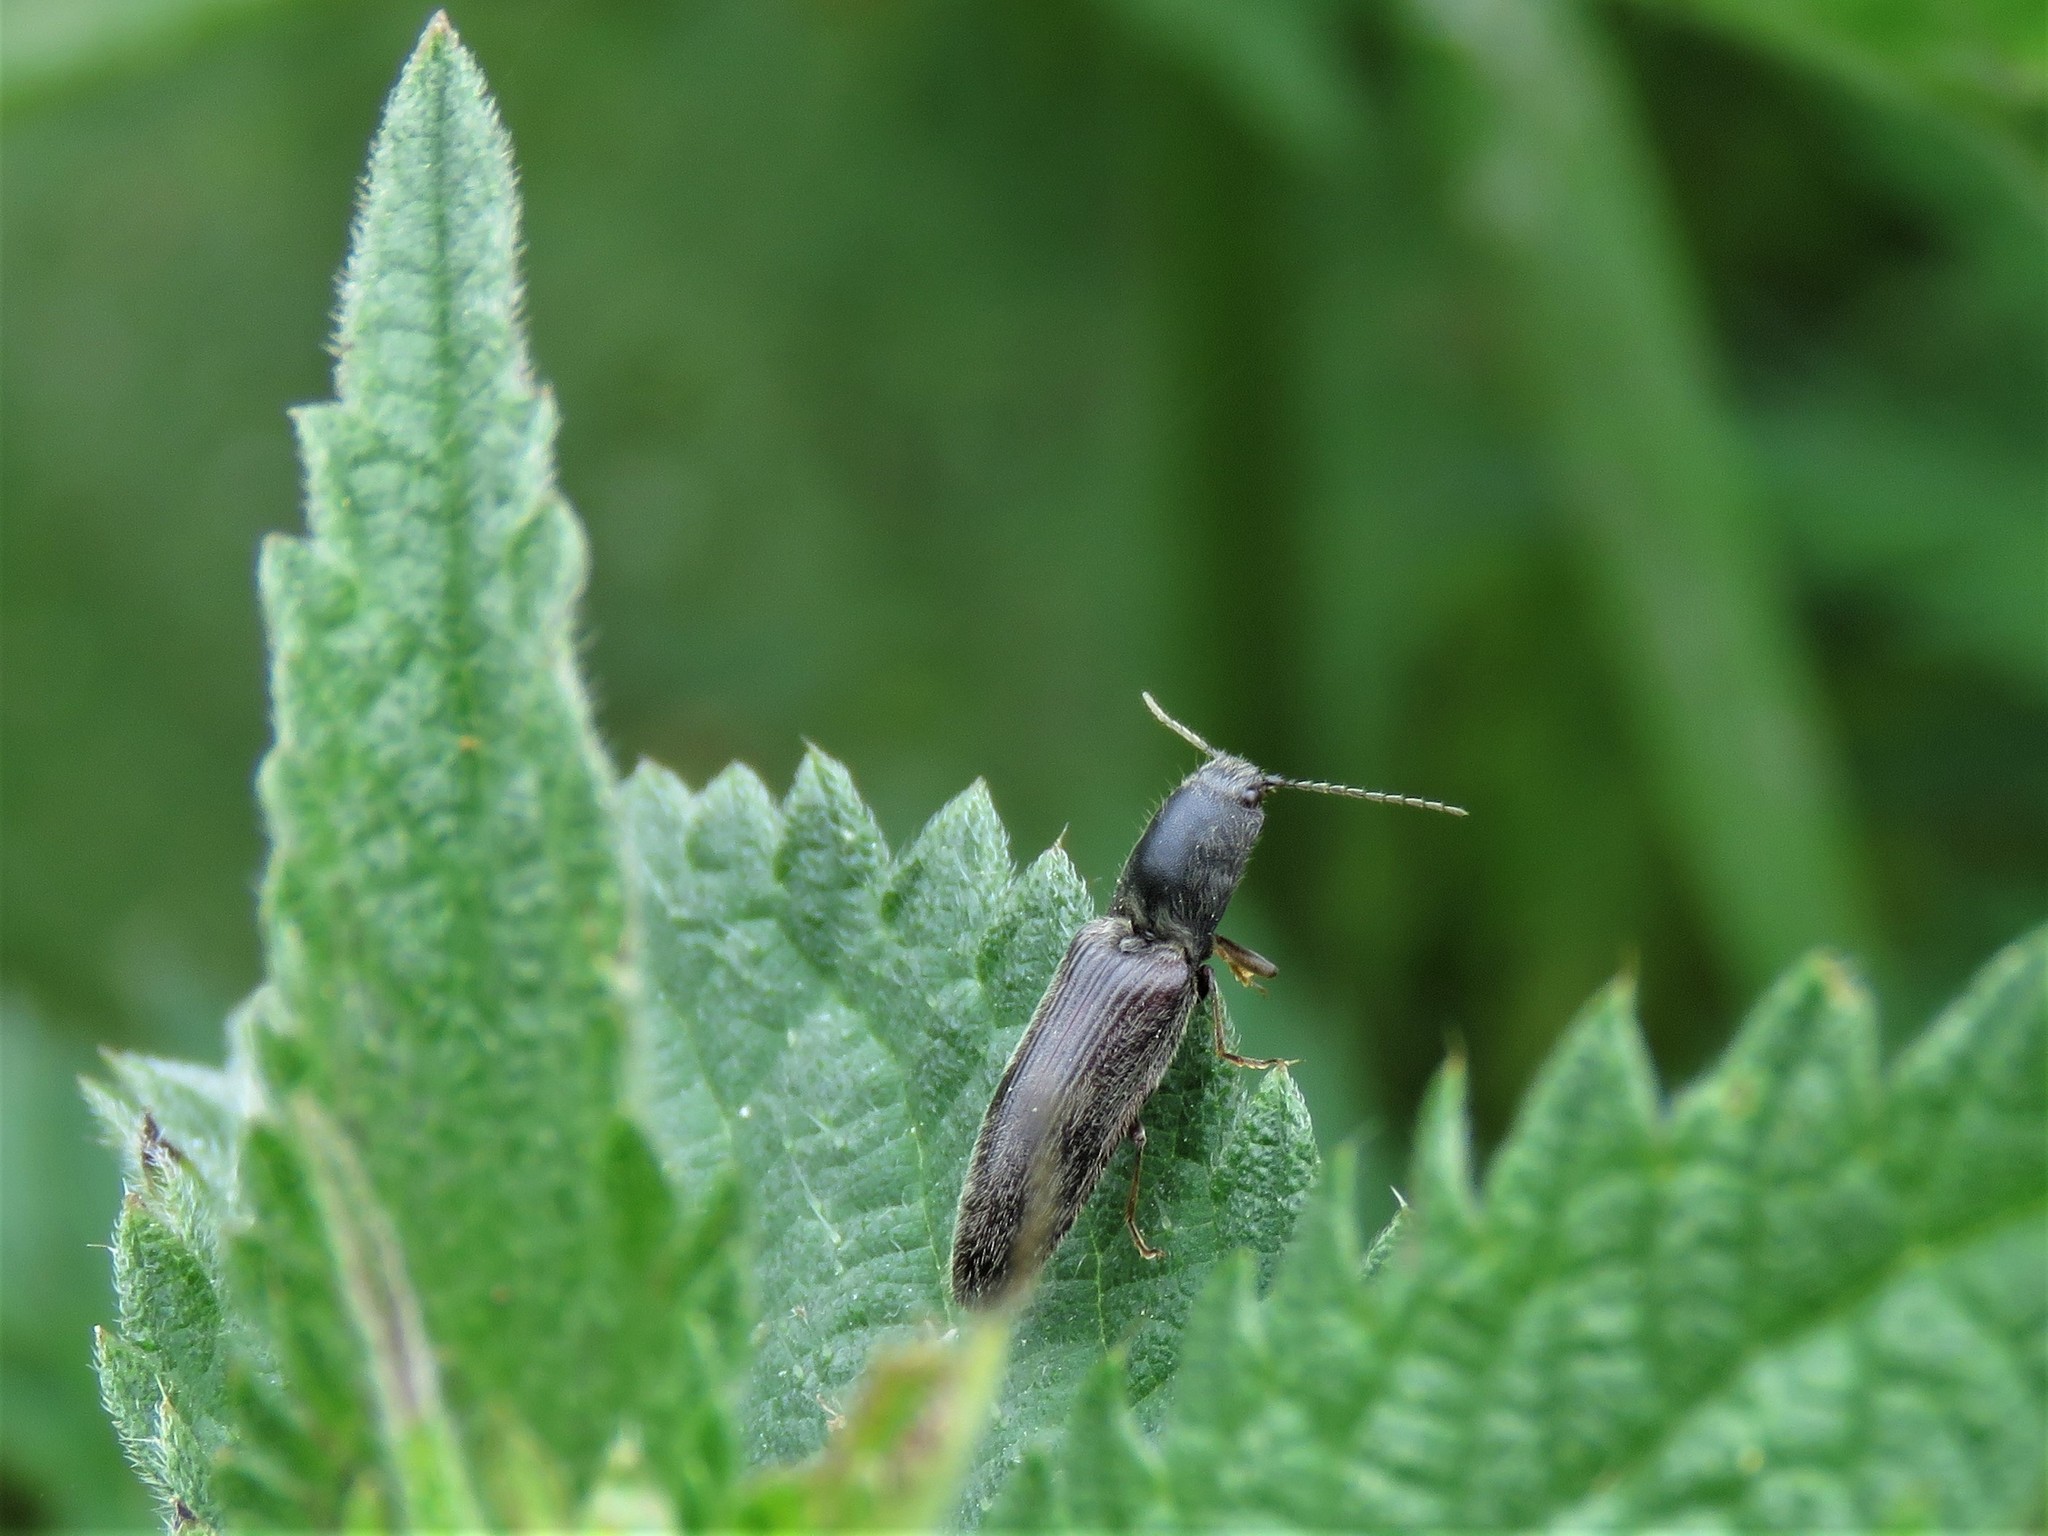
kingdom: Animalia
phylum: Arthropoda
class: Insecta
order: Coleoptera
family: Elateridae
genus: Athous
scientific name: Athous haemorrhoidalis
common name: Red-brown click beetle
